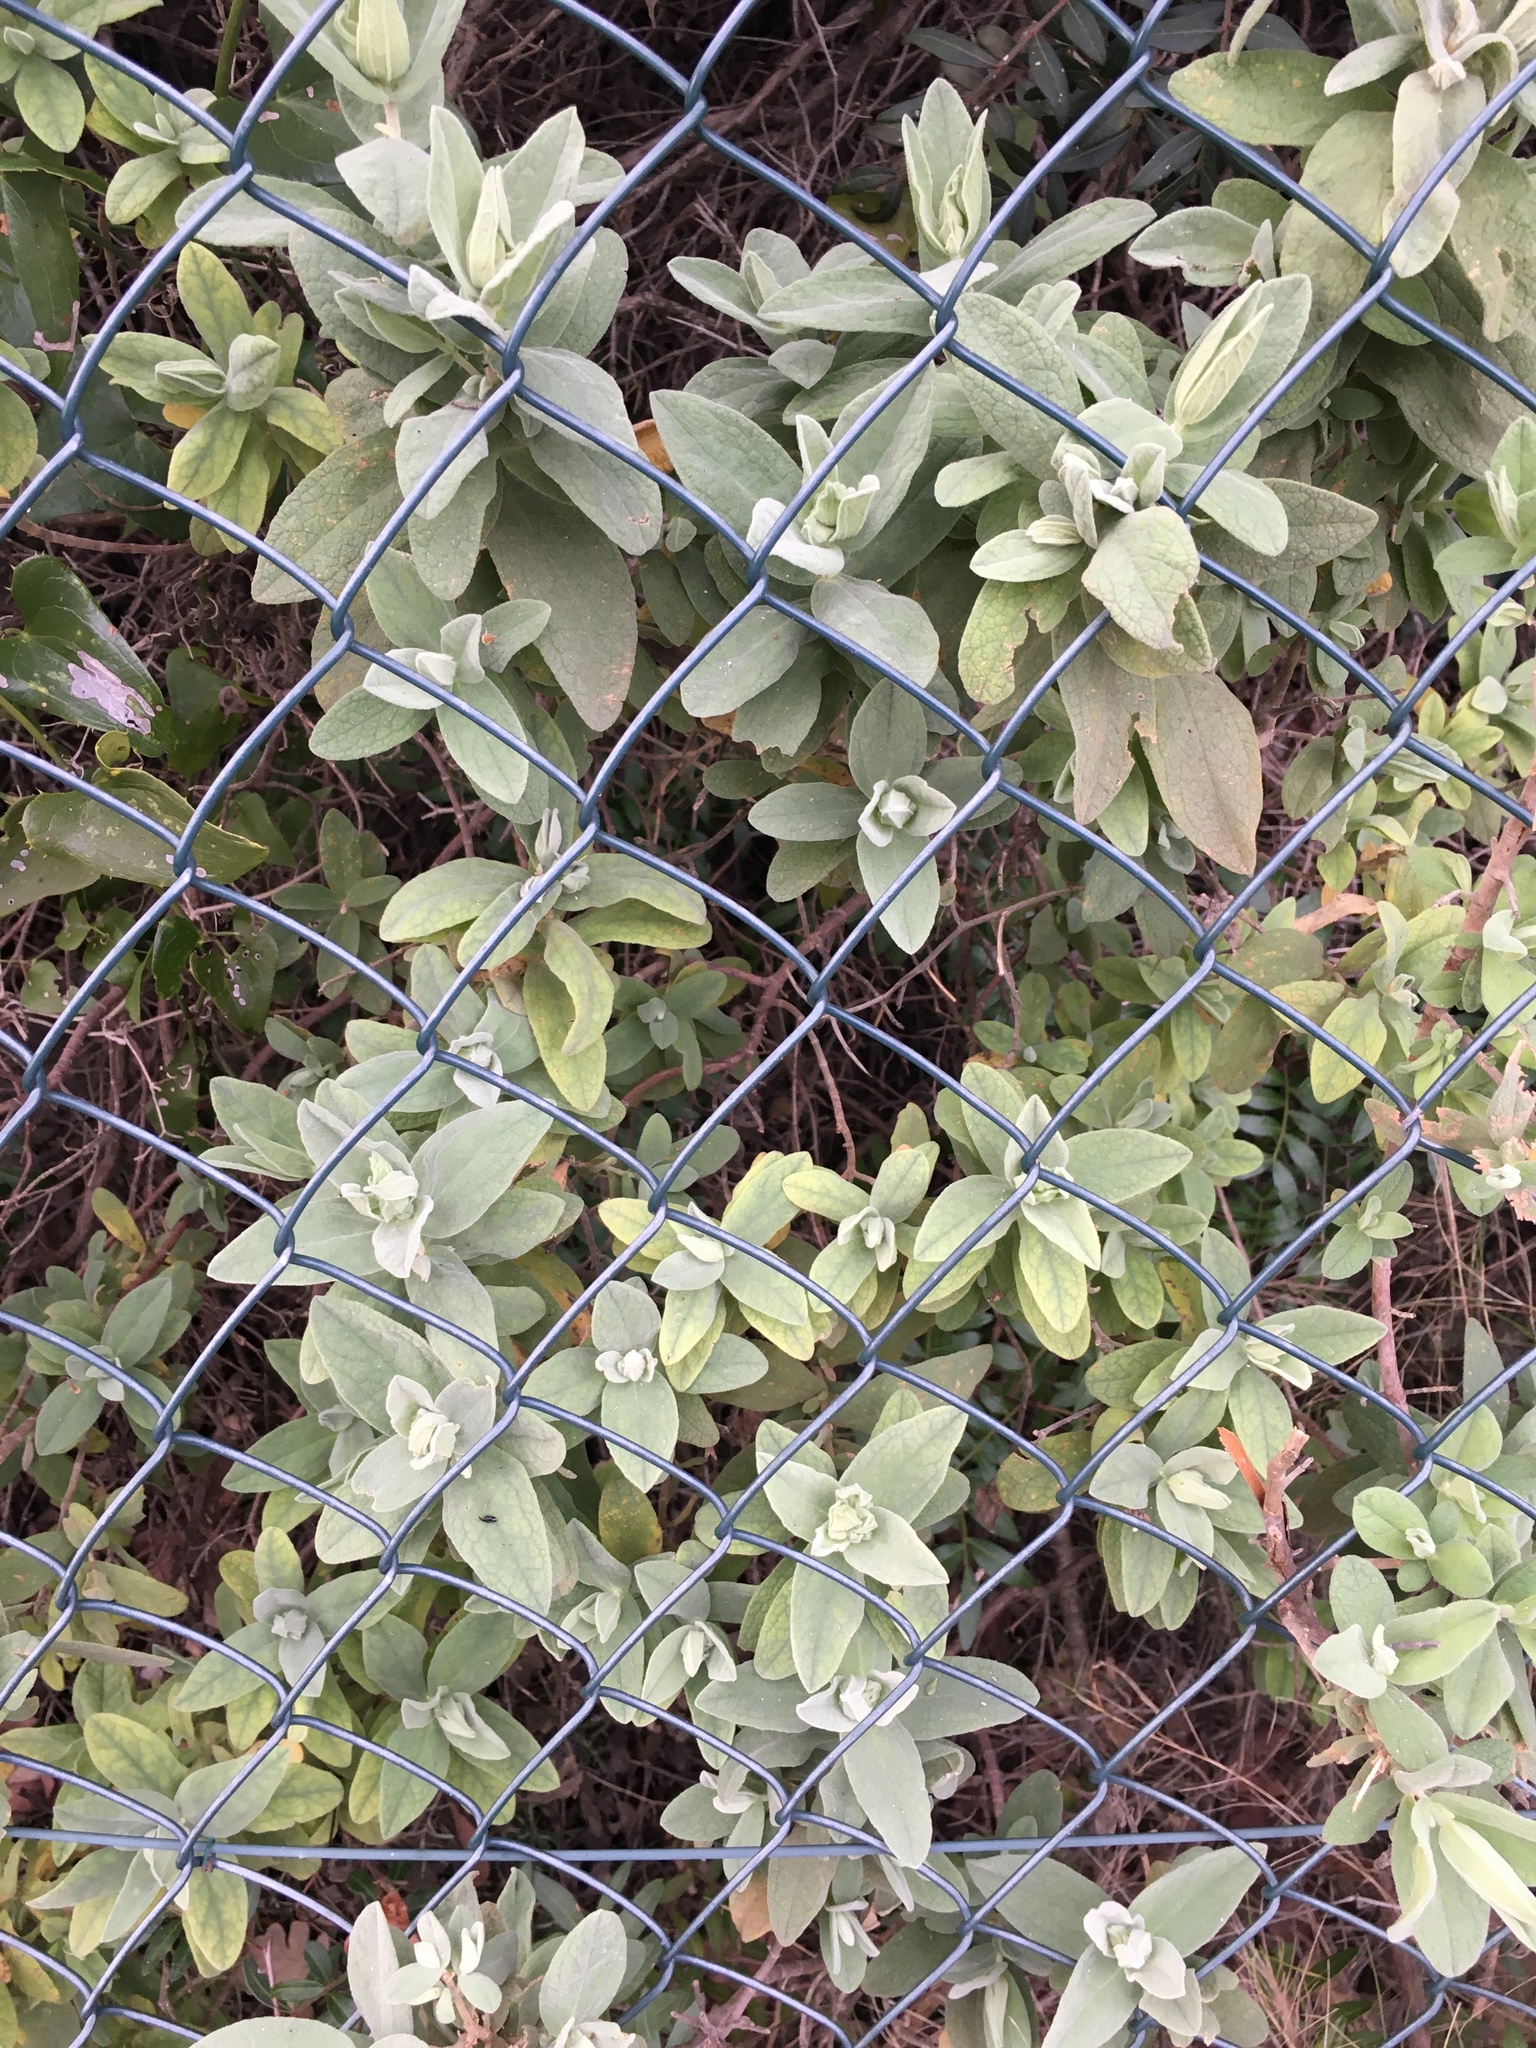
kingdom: Plantae
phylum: Tracheophyta
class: Magnoliopsida
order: Malvales
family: Cistaceae
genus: Cistus
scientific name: Cistus albidus
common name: White-leaf rock-rose
